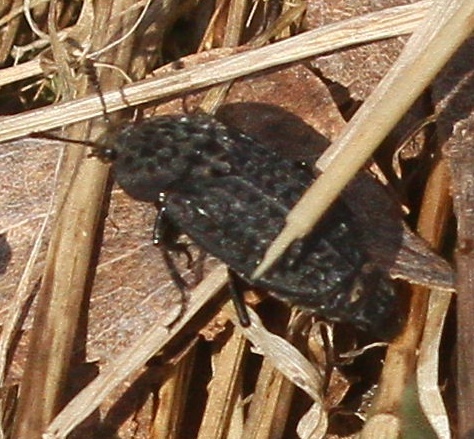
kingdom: Animalia
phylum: Arthropoda
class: Insecta
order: Coleoptera
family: Staphylinidae
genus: Thanatophilus
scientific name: Thanatophilus rugosus
